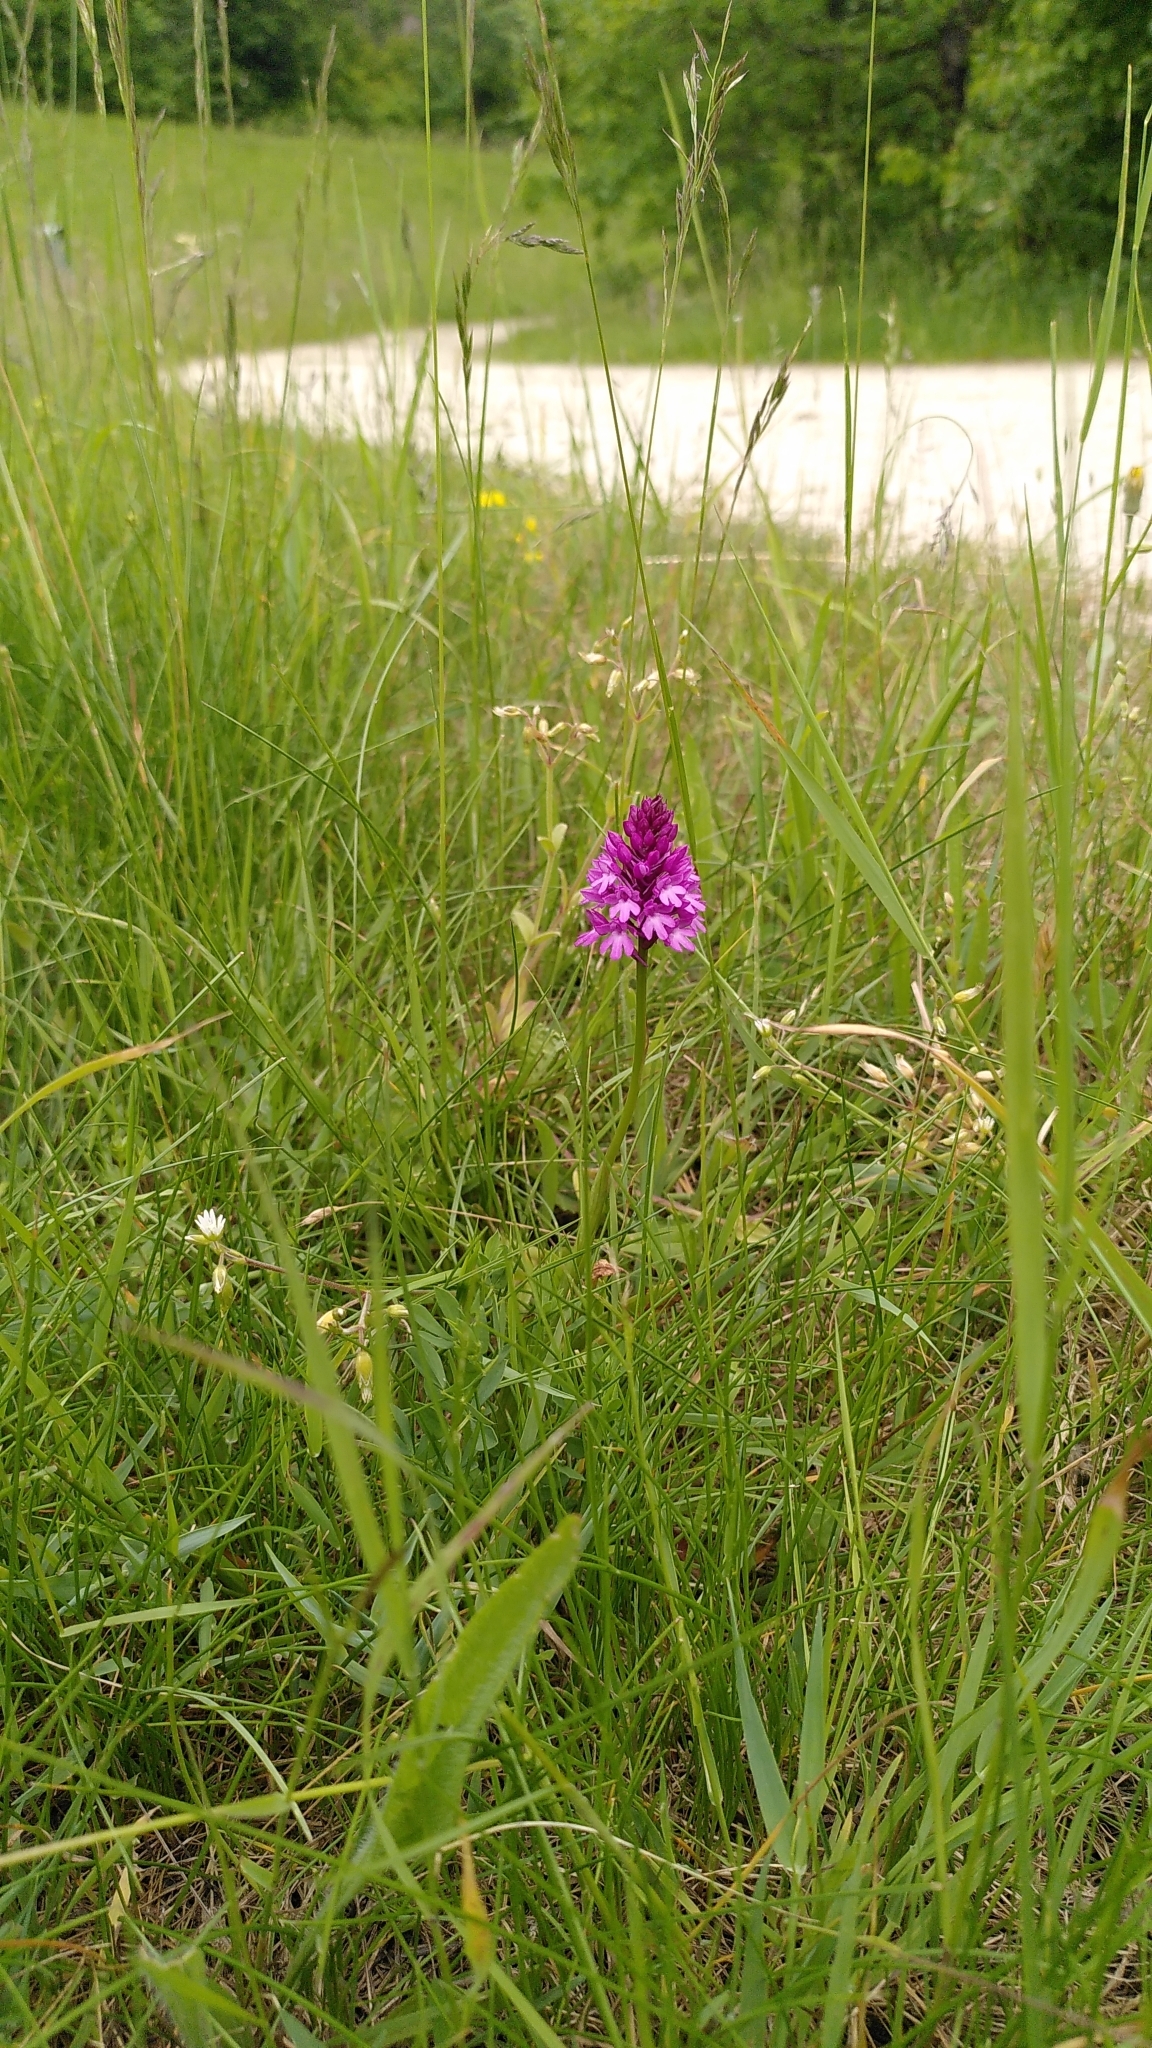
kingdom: Plantae
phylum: Tracheophyta
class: Liliopsida
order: Asparagales
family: Orchidaceae
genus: Anacamptis
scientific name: Anacamptis pyramidalis
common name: Pyramidal orchid
